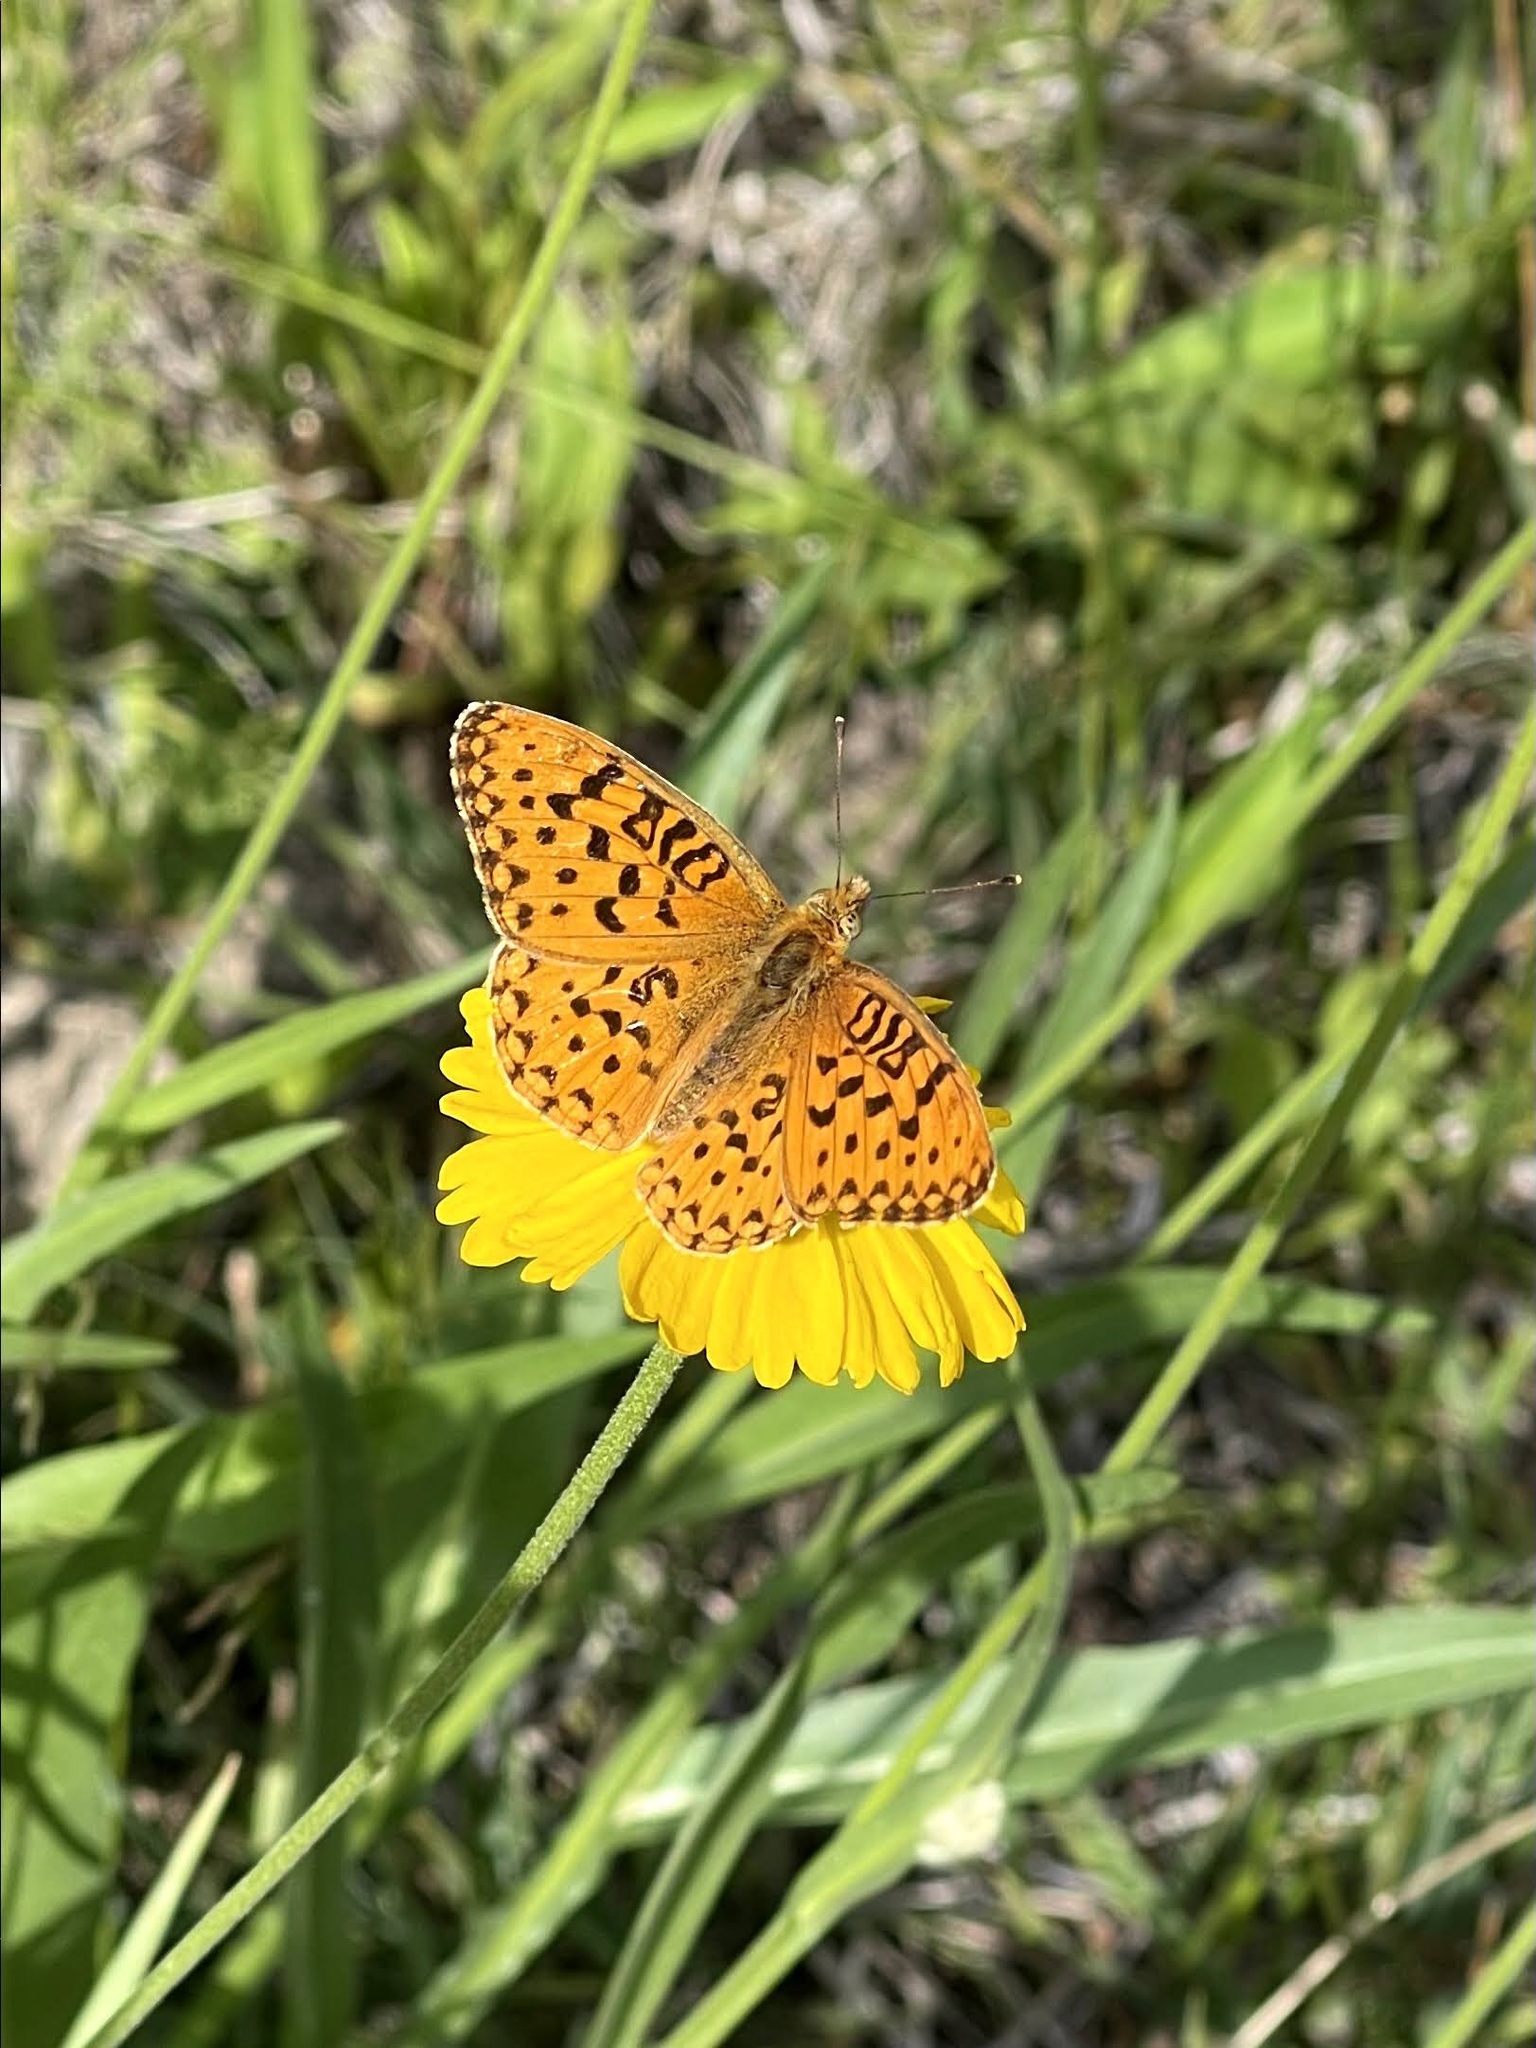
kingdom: Animalia
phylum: Arthropoda
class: Insecta
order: Lepidoptera
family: Nymphalidae
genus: Speyeria
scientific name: Speyeria mormonia
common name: Mormon fritillary
